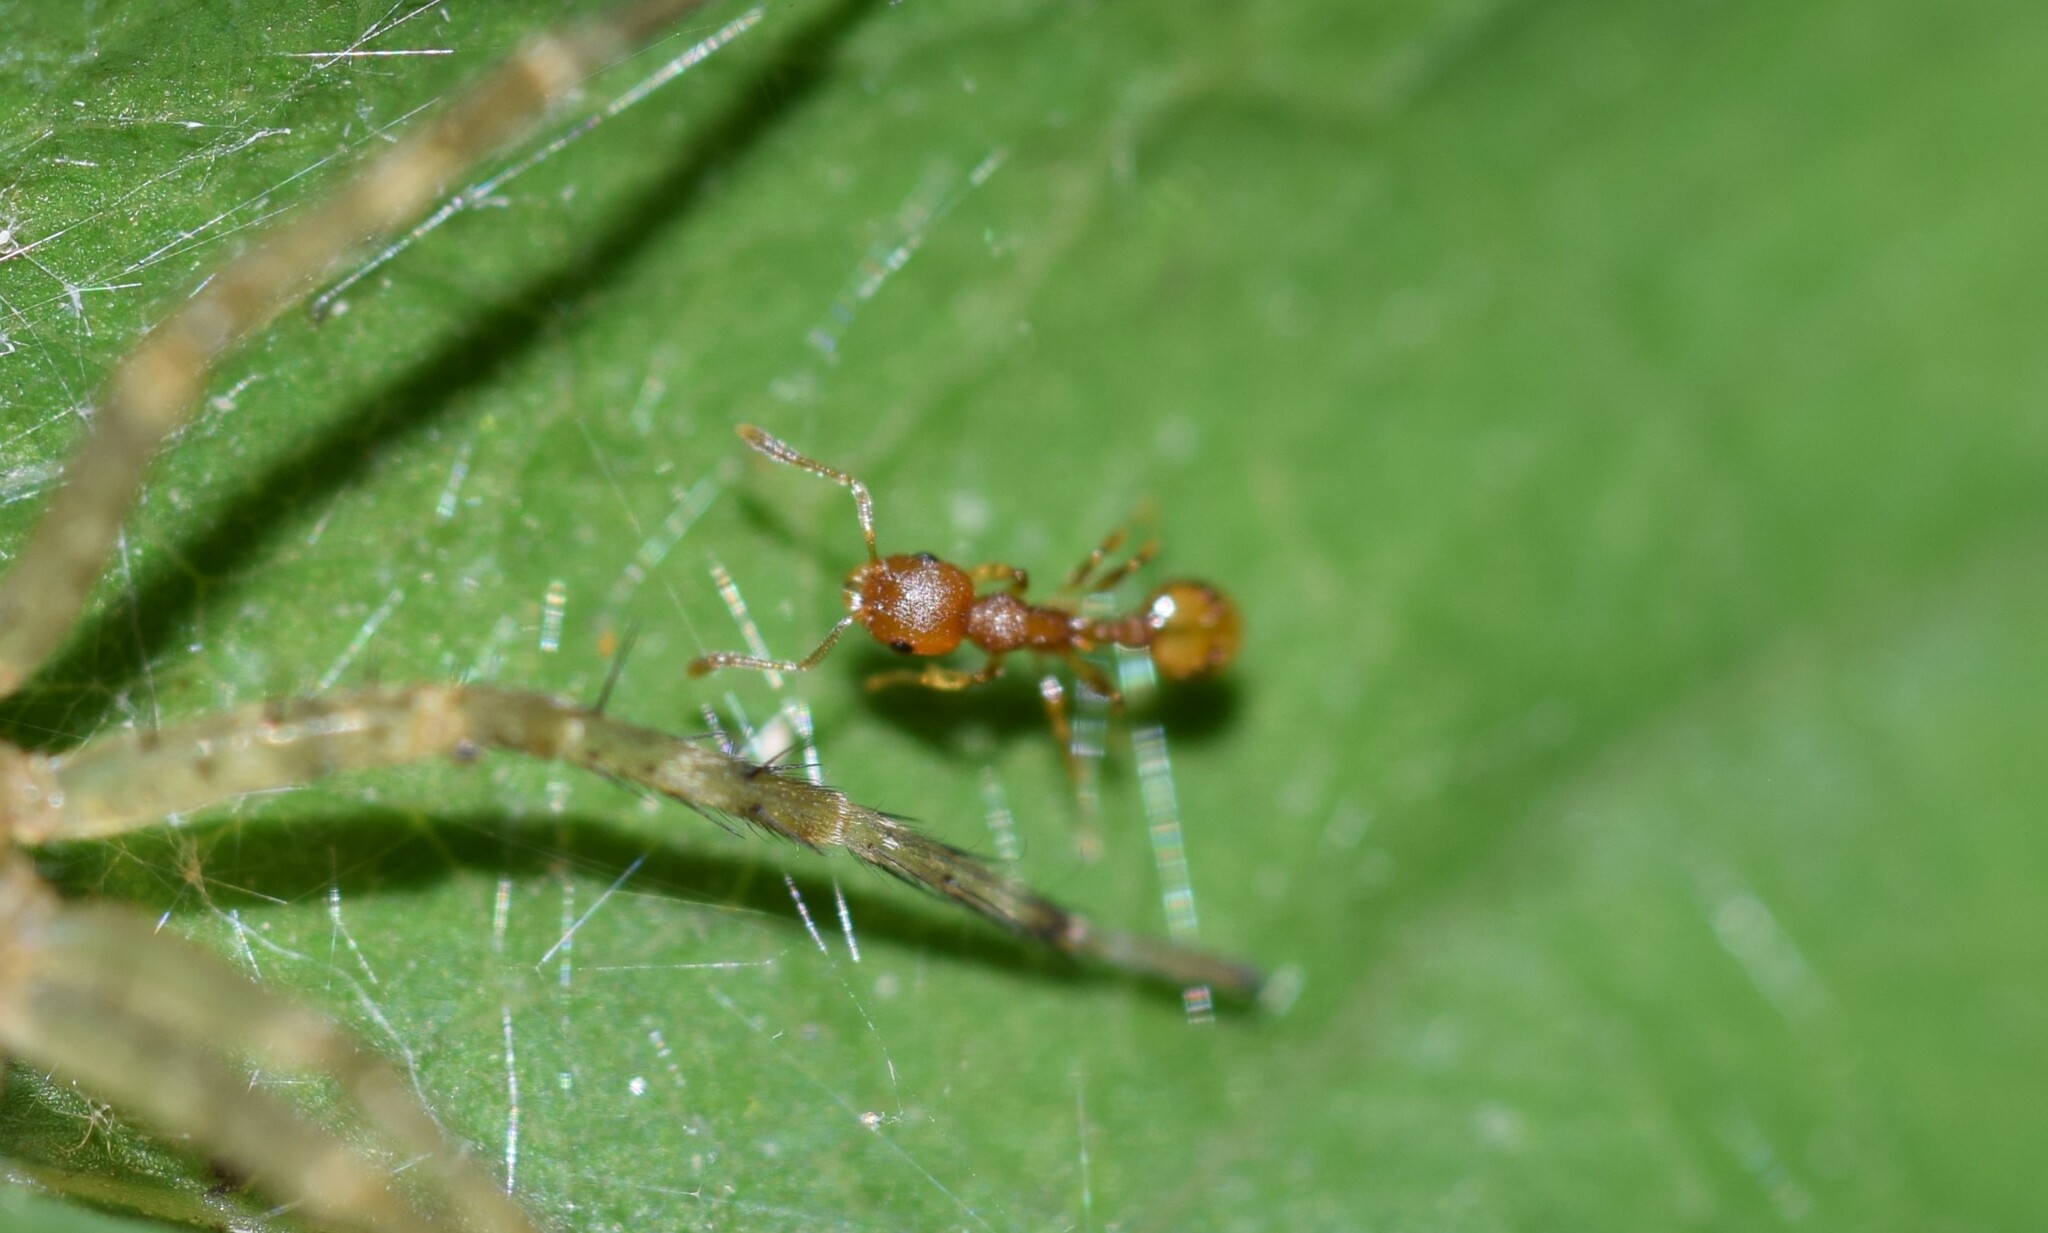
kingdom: Animalia
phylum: Arthropoda
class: Insecta
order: Hymenoptera
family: Formicidae
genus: Temnothorax
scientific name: Temnothorax curvispinosus
